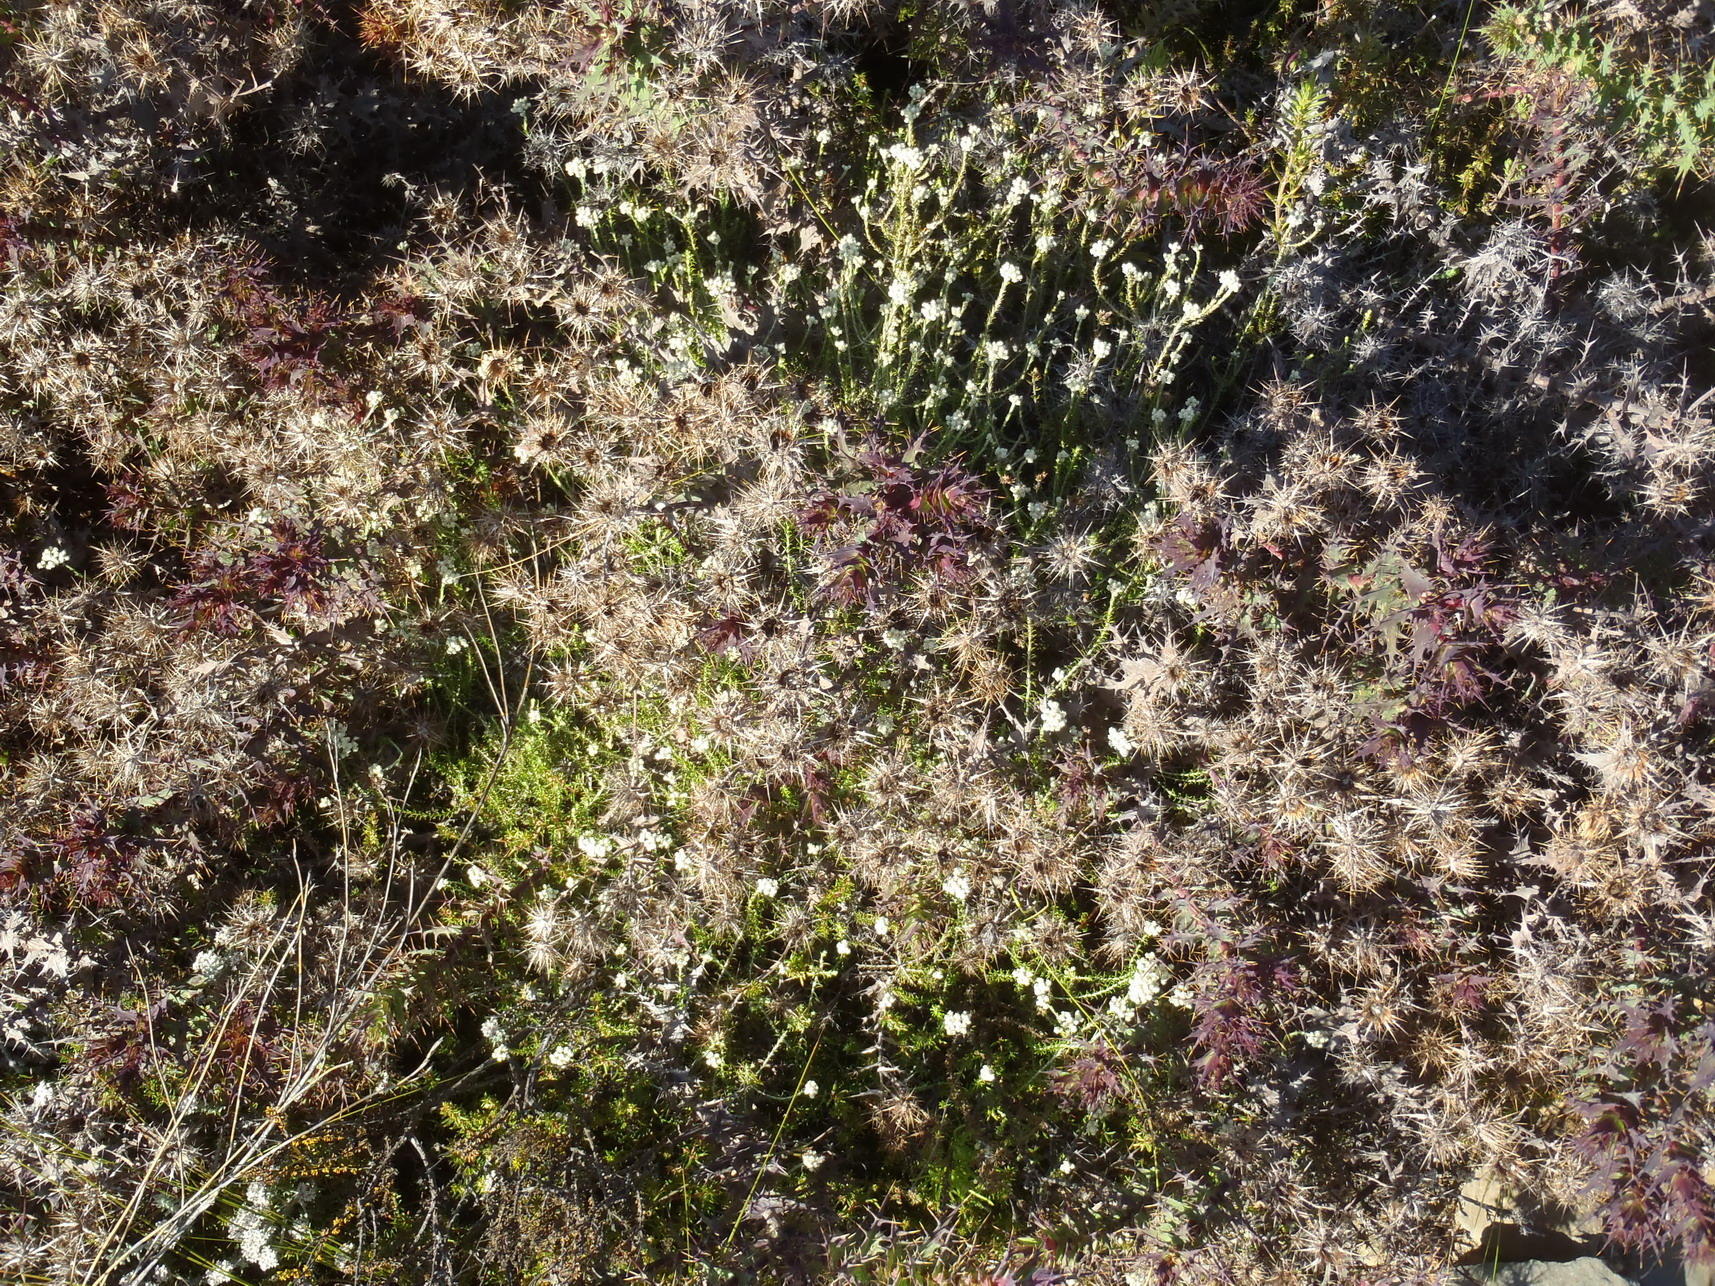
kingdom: Plantae
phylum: Tracheophyta
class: Magnoliopsida
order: Asterales
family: Asteraceae
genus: Berkheya
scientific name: Berkheya cruciata
